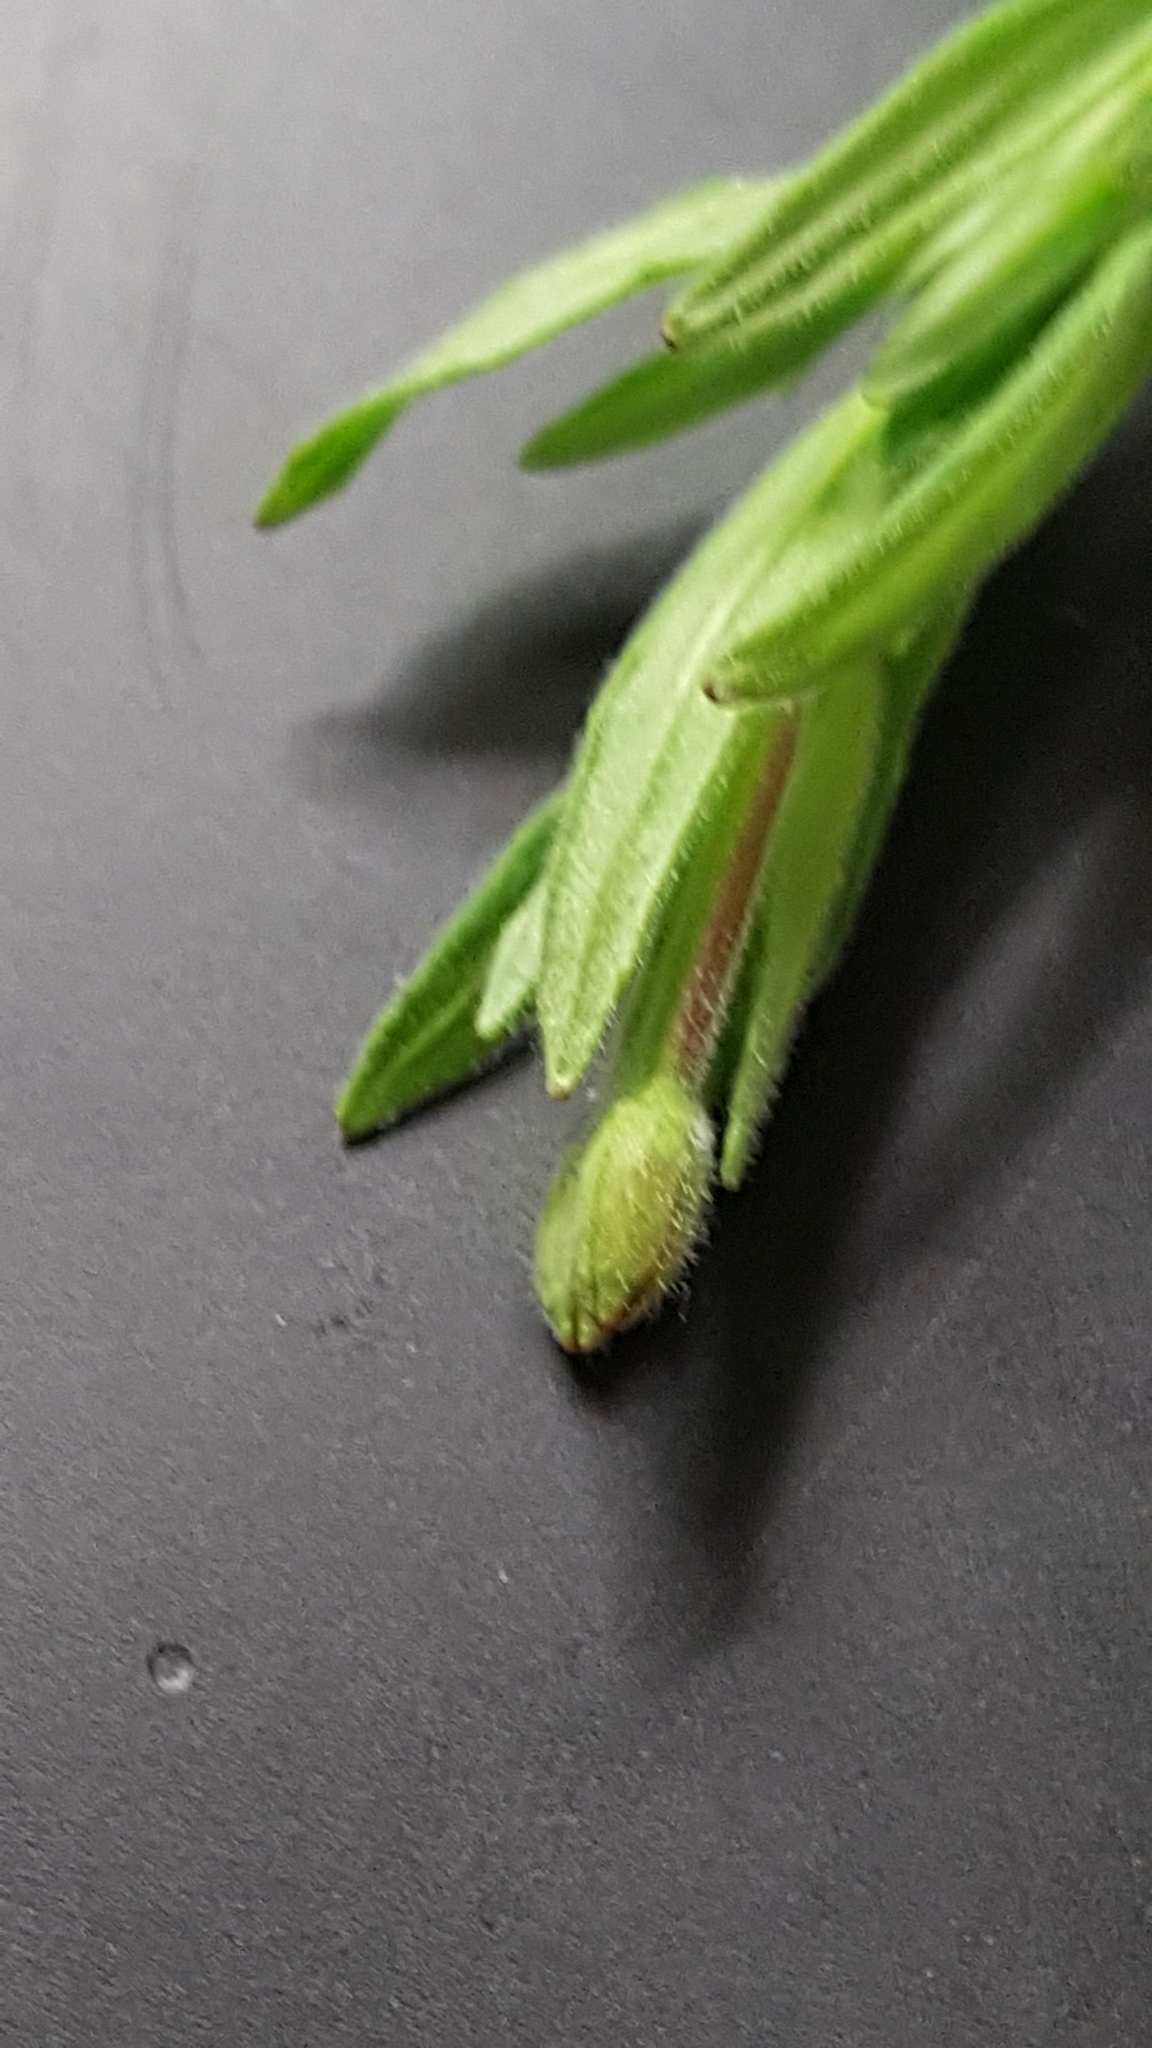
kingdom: Plantae
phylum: Tracheophyta
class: Magnoliopsida
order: Myrtales
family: Onagraceae
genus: Epilobium
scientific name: Epilobium densum
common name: Downy willowherb
